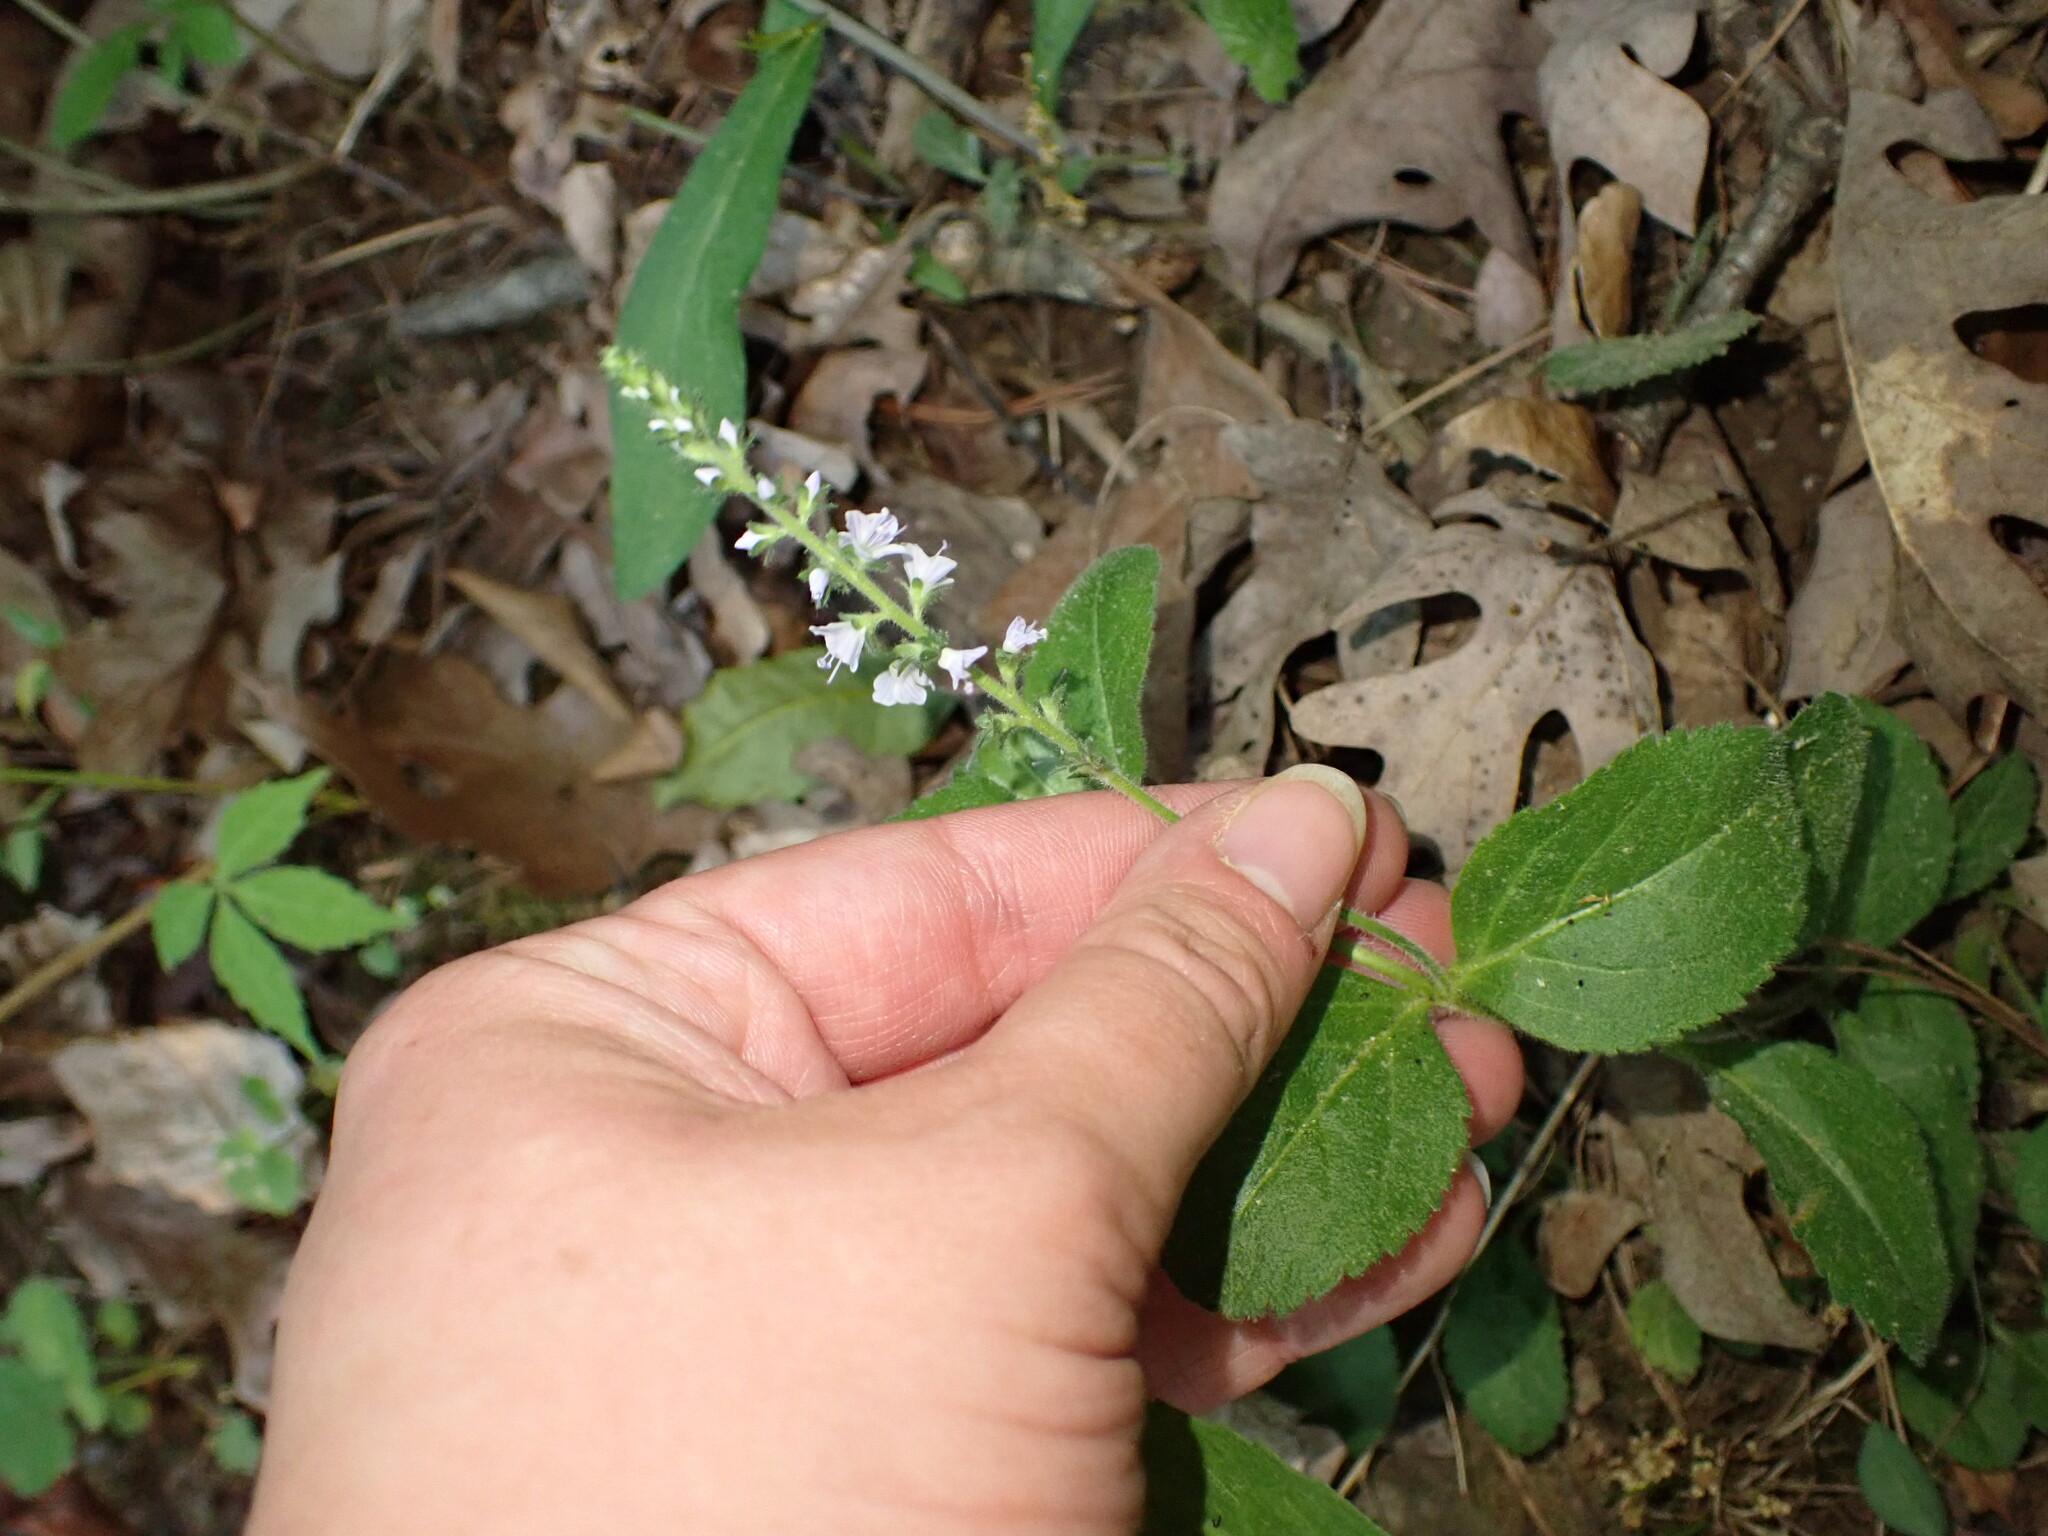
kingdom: Plantae
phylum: Tracheophyta
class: Magnoliopsida
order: Lamiales
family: Plantaginaceae
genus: Veronica
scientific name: Veronica officinalis
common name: Common speedwell
